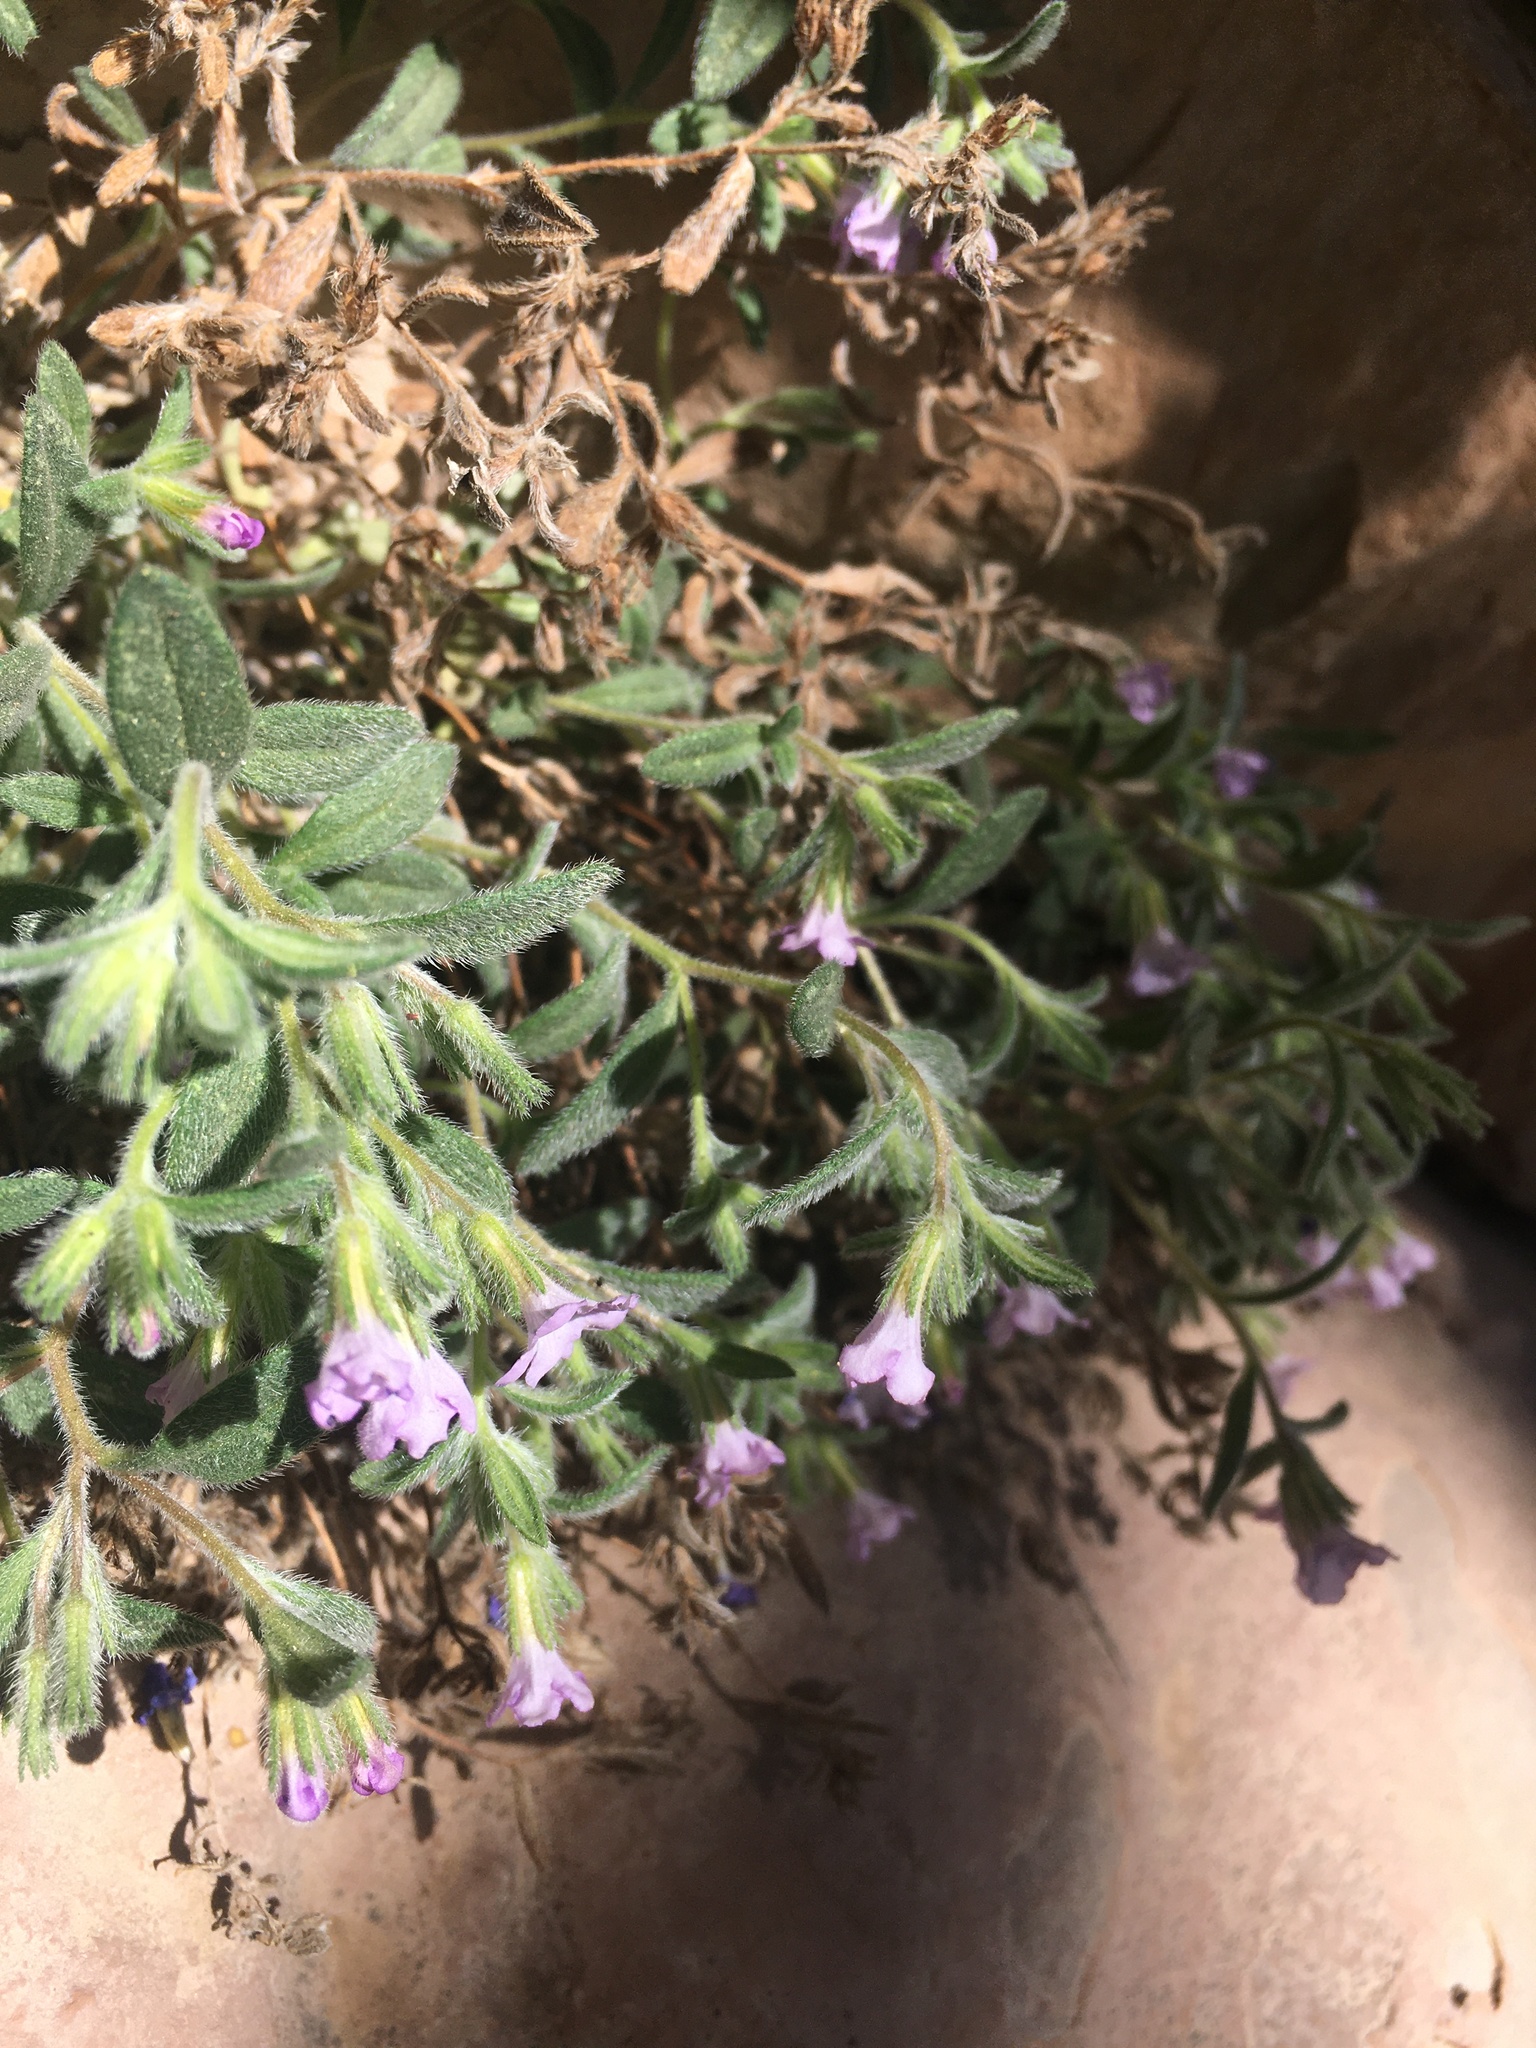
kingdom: Plantae
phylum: Tracheophyta
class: Magnoliopsida
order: Boraginales
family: Namaceae
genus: Nama
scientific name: Nama xylopoda
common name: Yellowseed fiddleleaf
